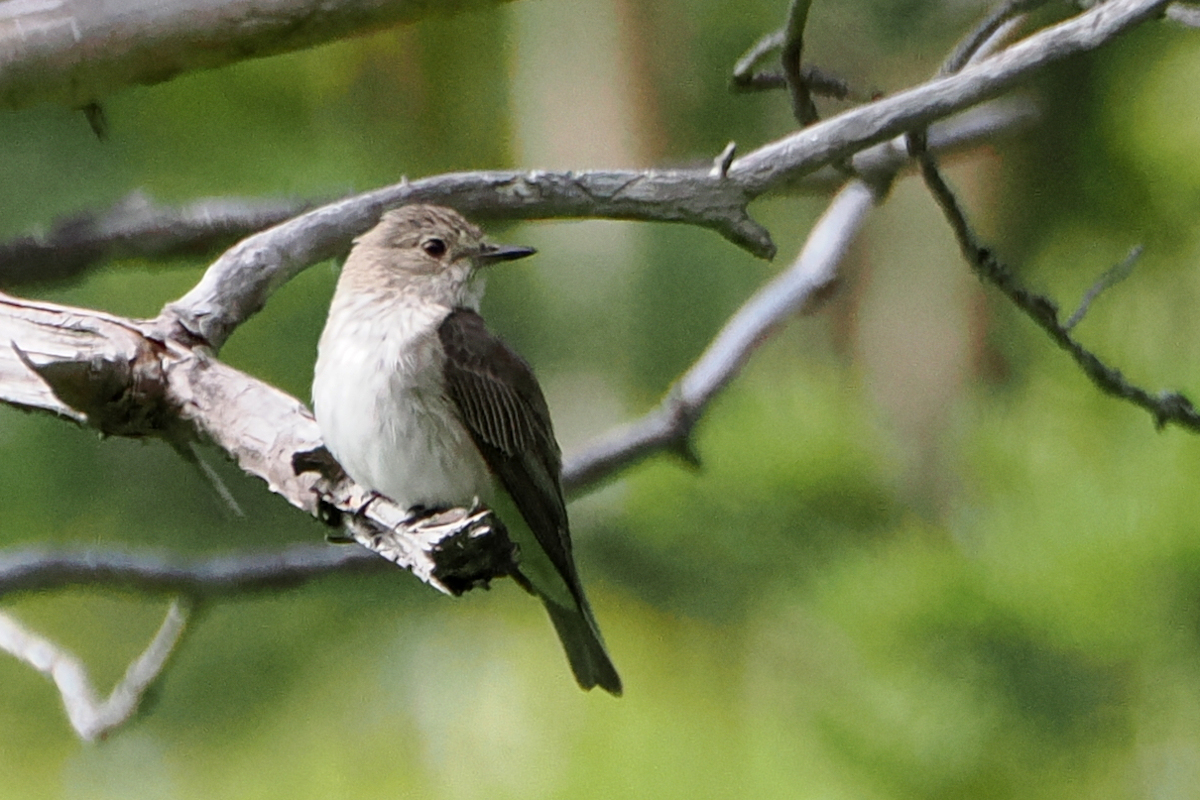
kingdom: Animalia
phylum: Chordata
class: Aves
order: Passeriformes
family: Muscicapidae
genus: Muscicapa
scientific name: Muscicapa striata
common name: Spotted flycatcher
